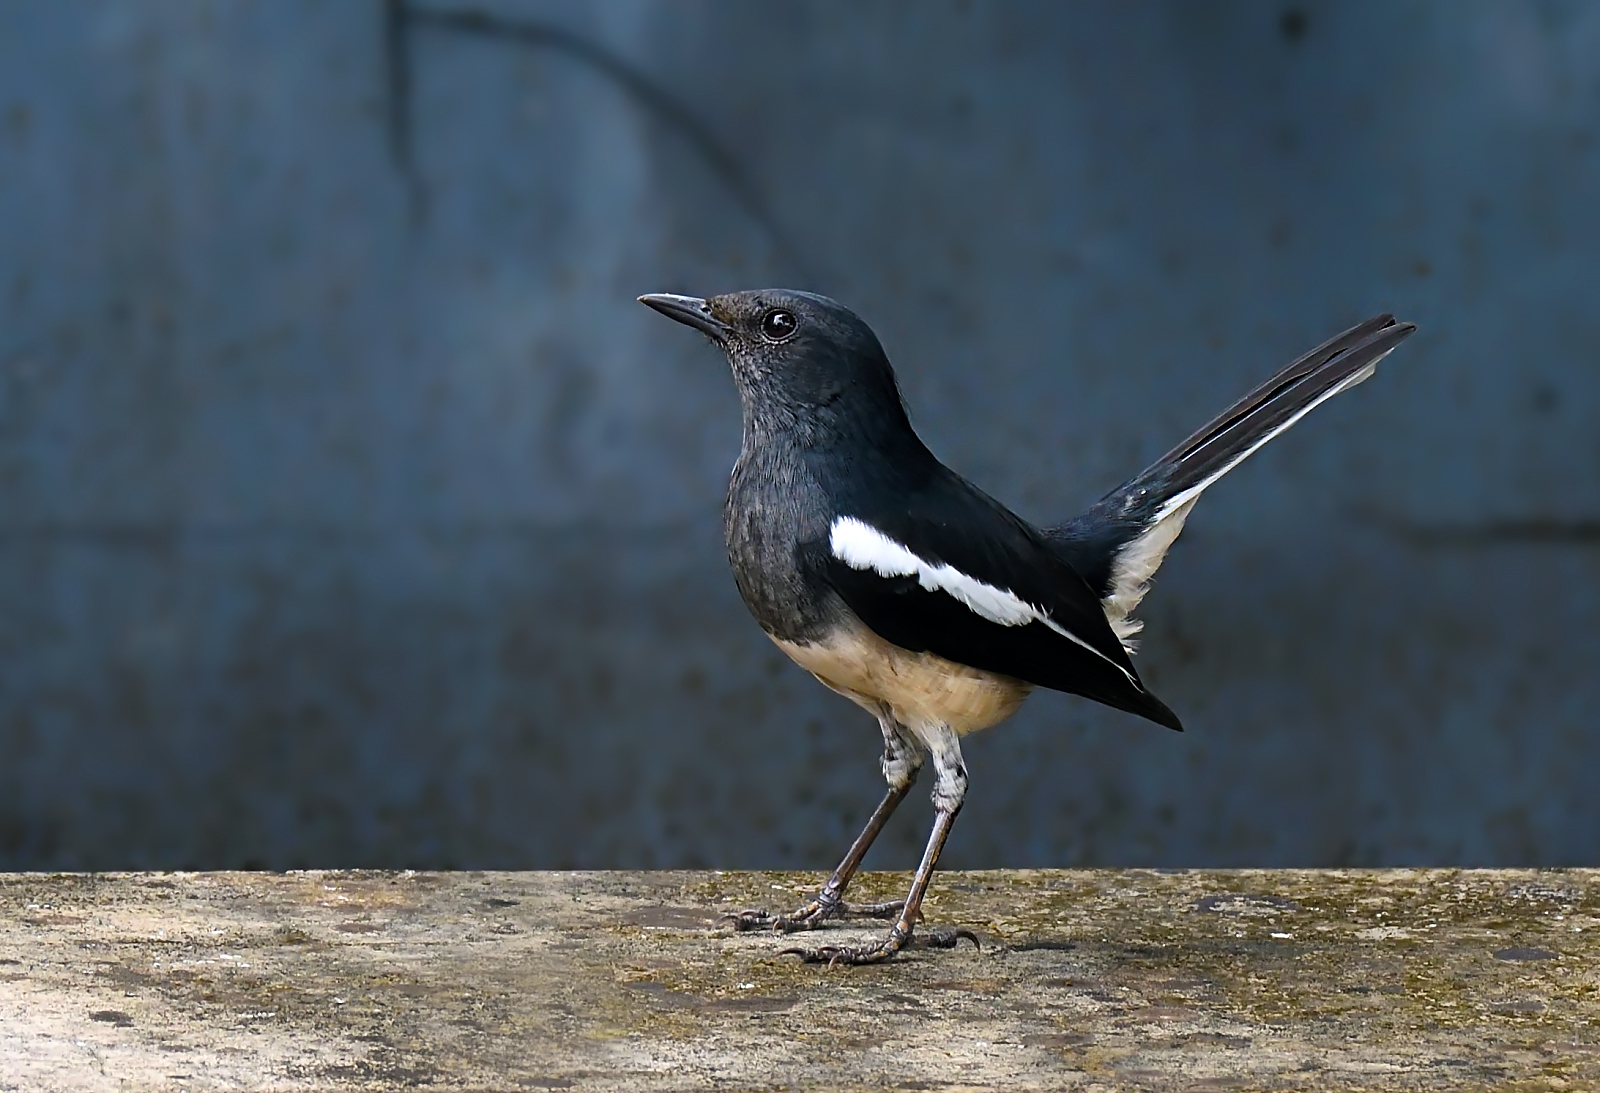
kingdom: Animalia
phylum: Chordata
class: Aves
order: Passeriformes
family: Muscicapidae
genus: Copsychus
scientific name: Copsychus saularis
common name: Oriental magpie-robin
